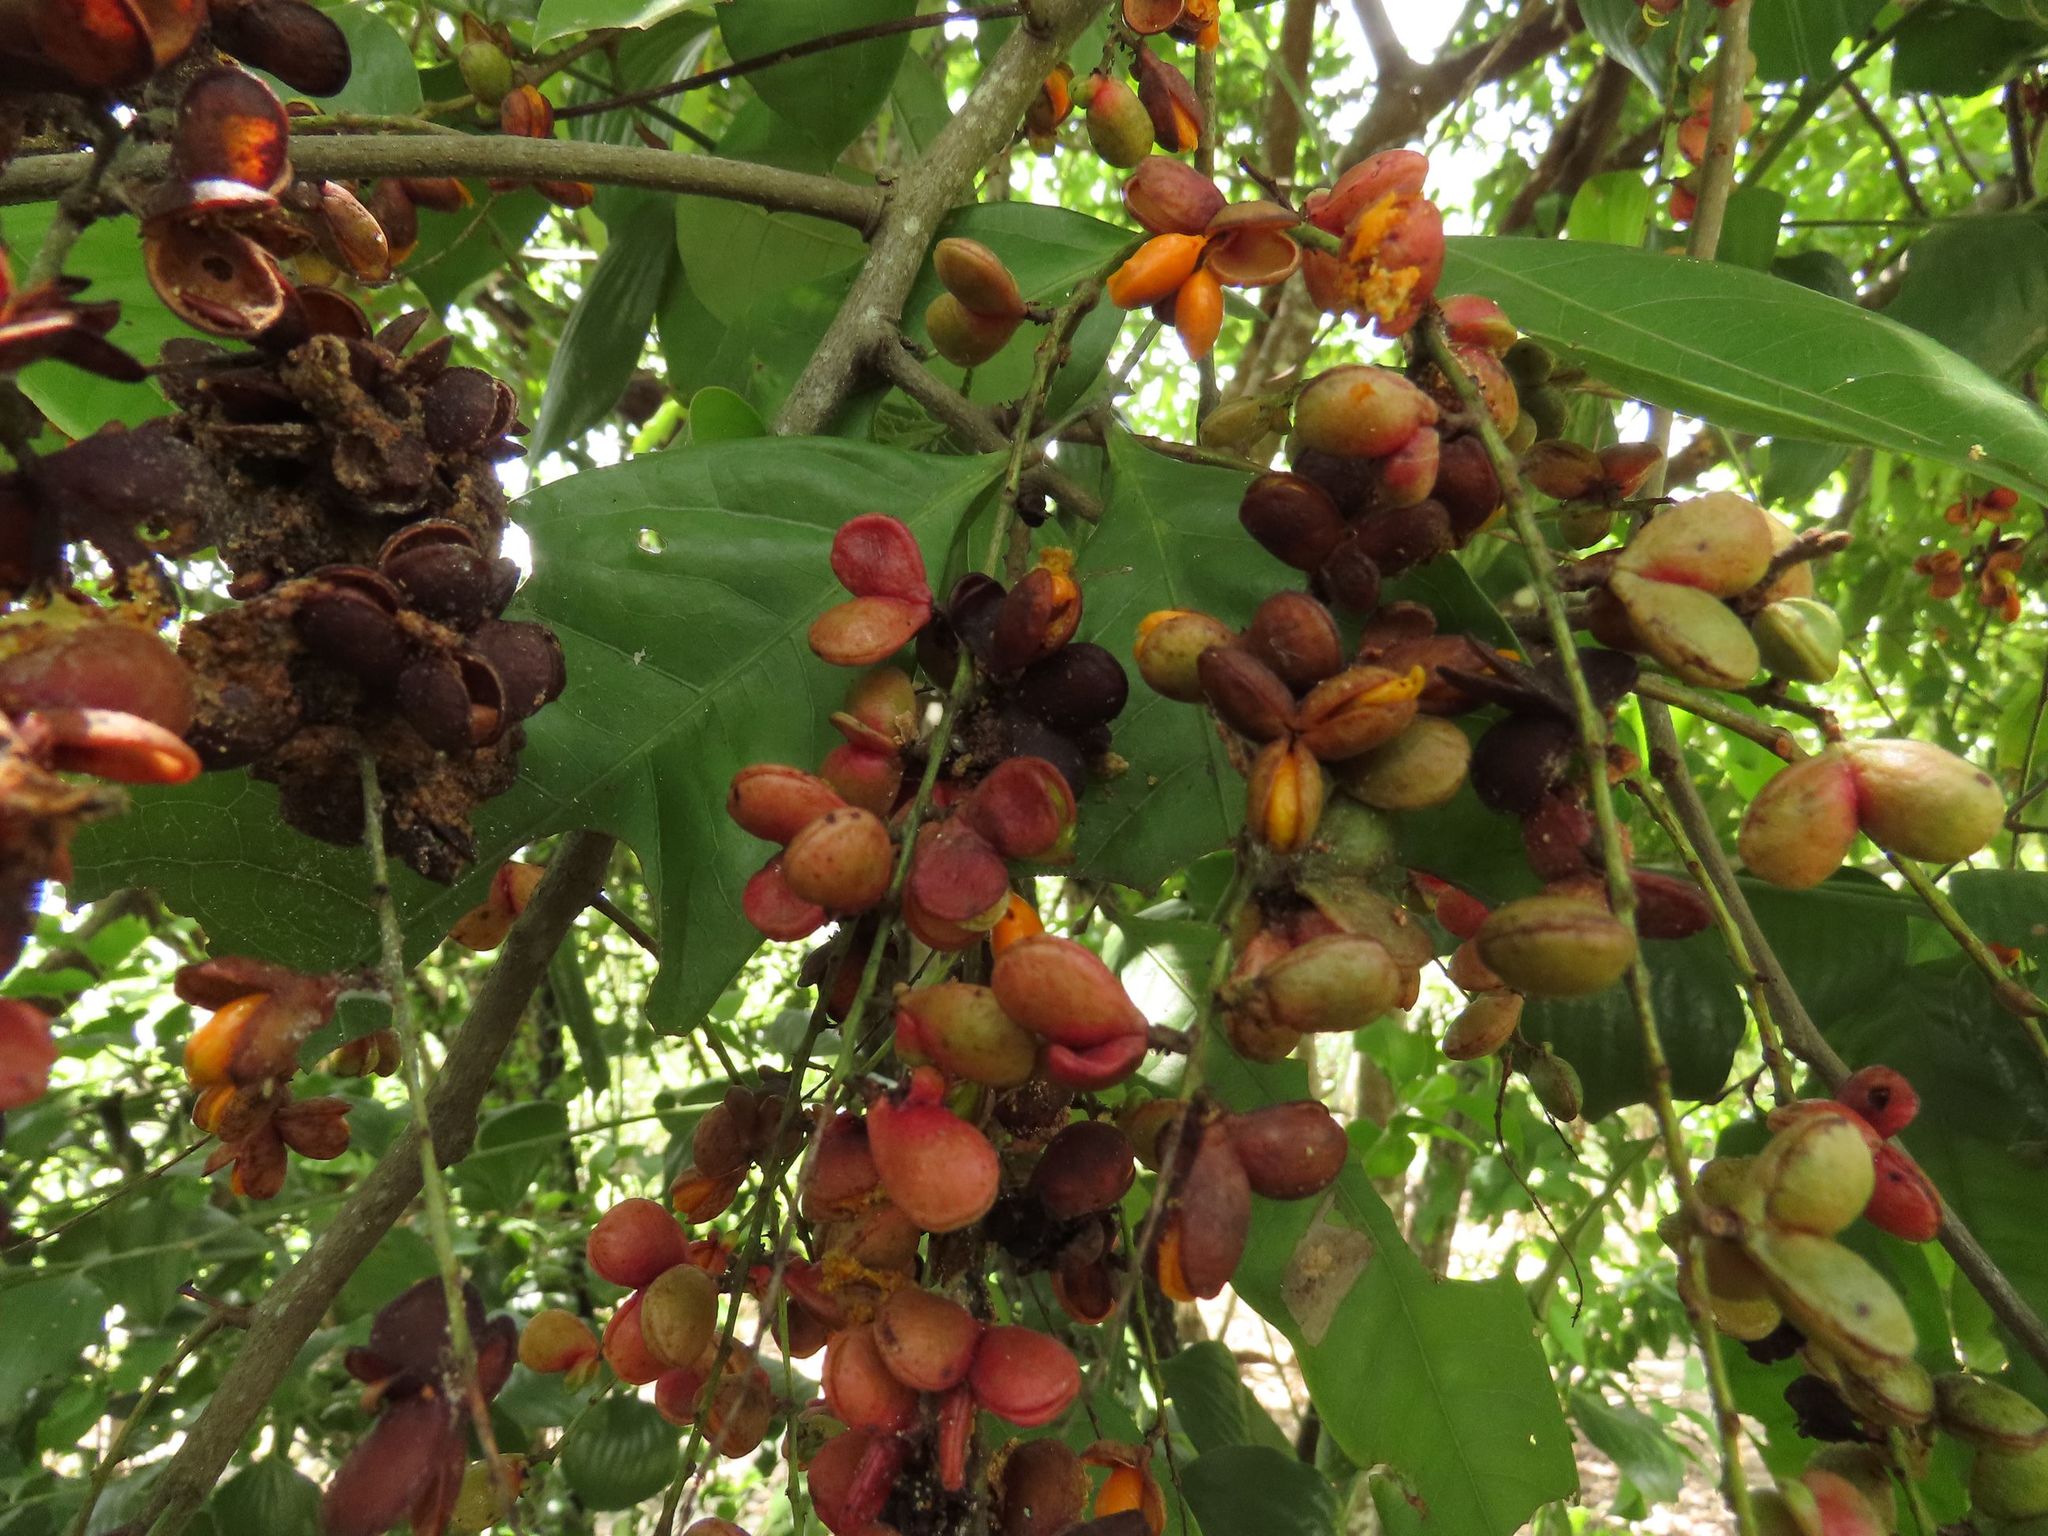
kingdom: Plantae
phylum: Tracheophyta
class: Magnoliopsida
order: Sapindales
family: Sapindaceae
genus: Guioa
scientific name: Guioa acutifolia
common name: Northern guioa
